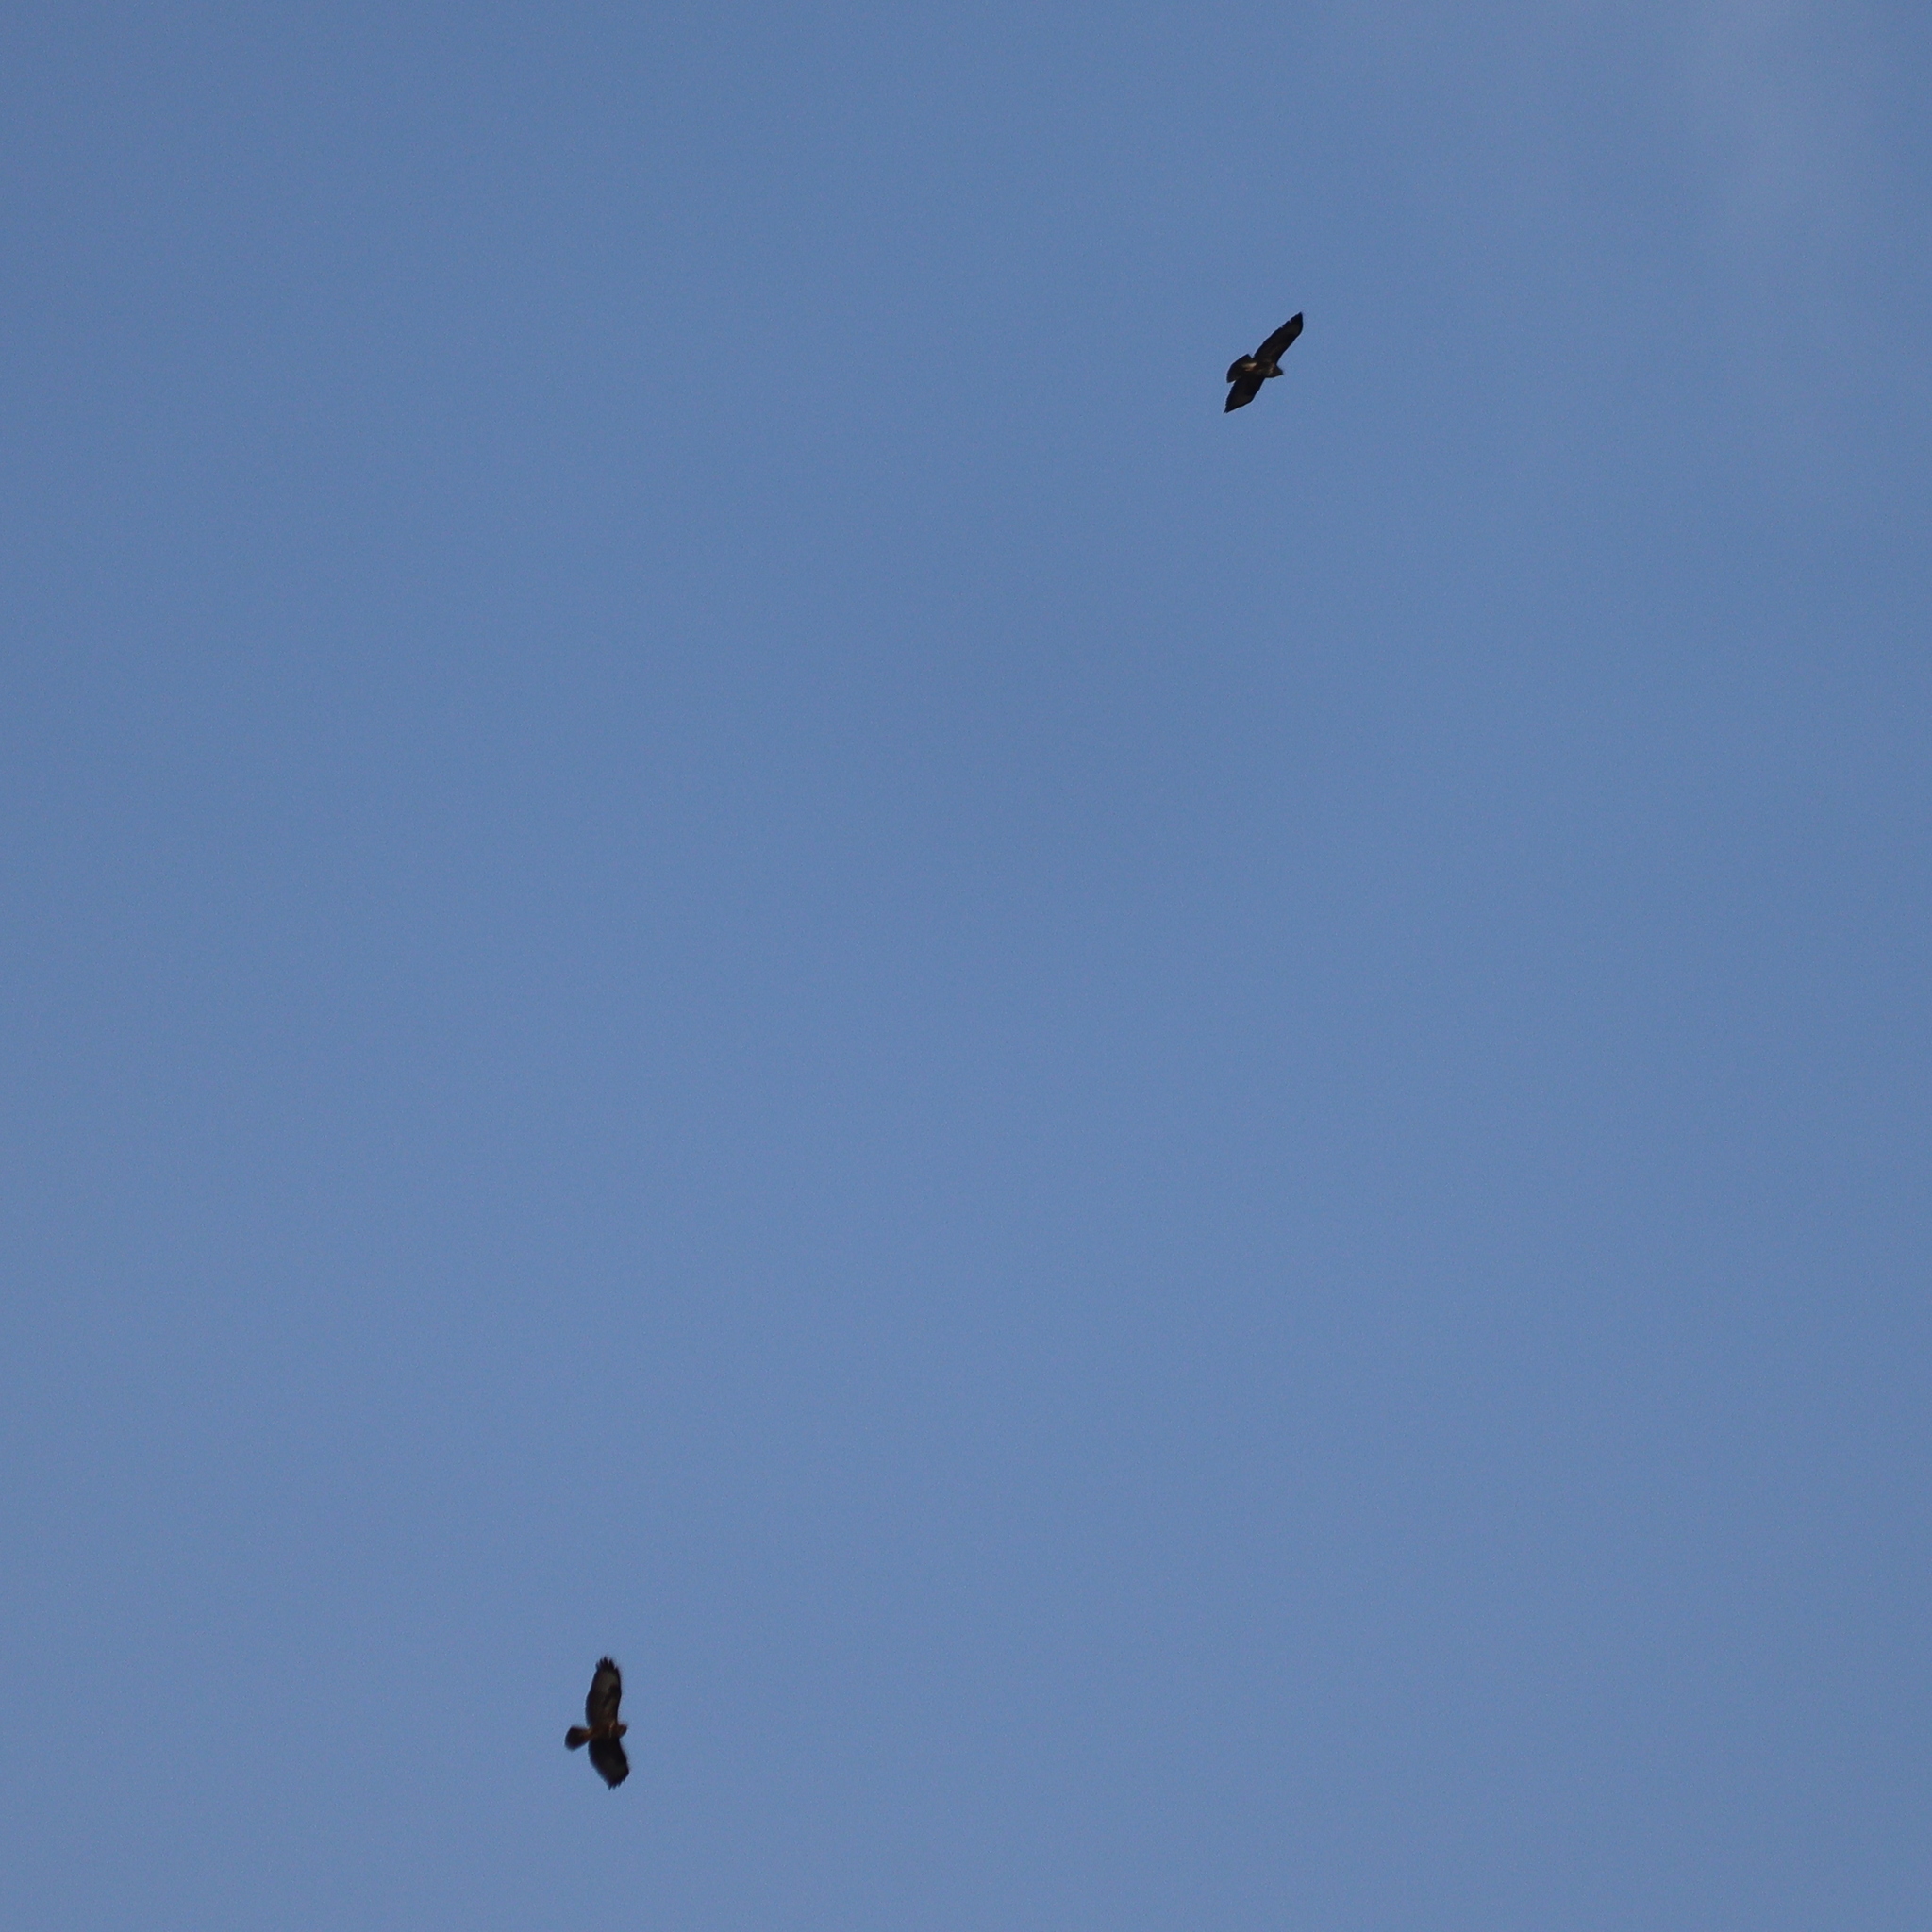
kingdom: Animalia
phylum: Chordata
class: Aves
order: Accipitriformes
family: Accipitridae
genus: Buteo
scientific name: Buteo buteo
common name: Common buzzard
